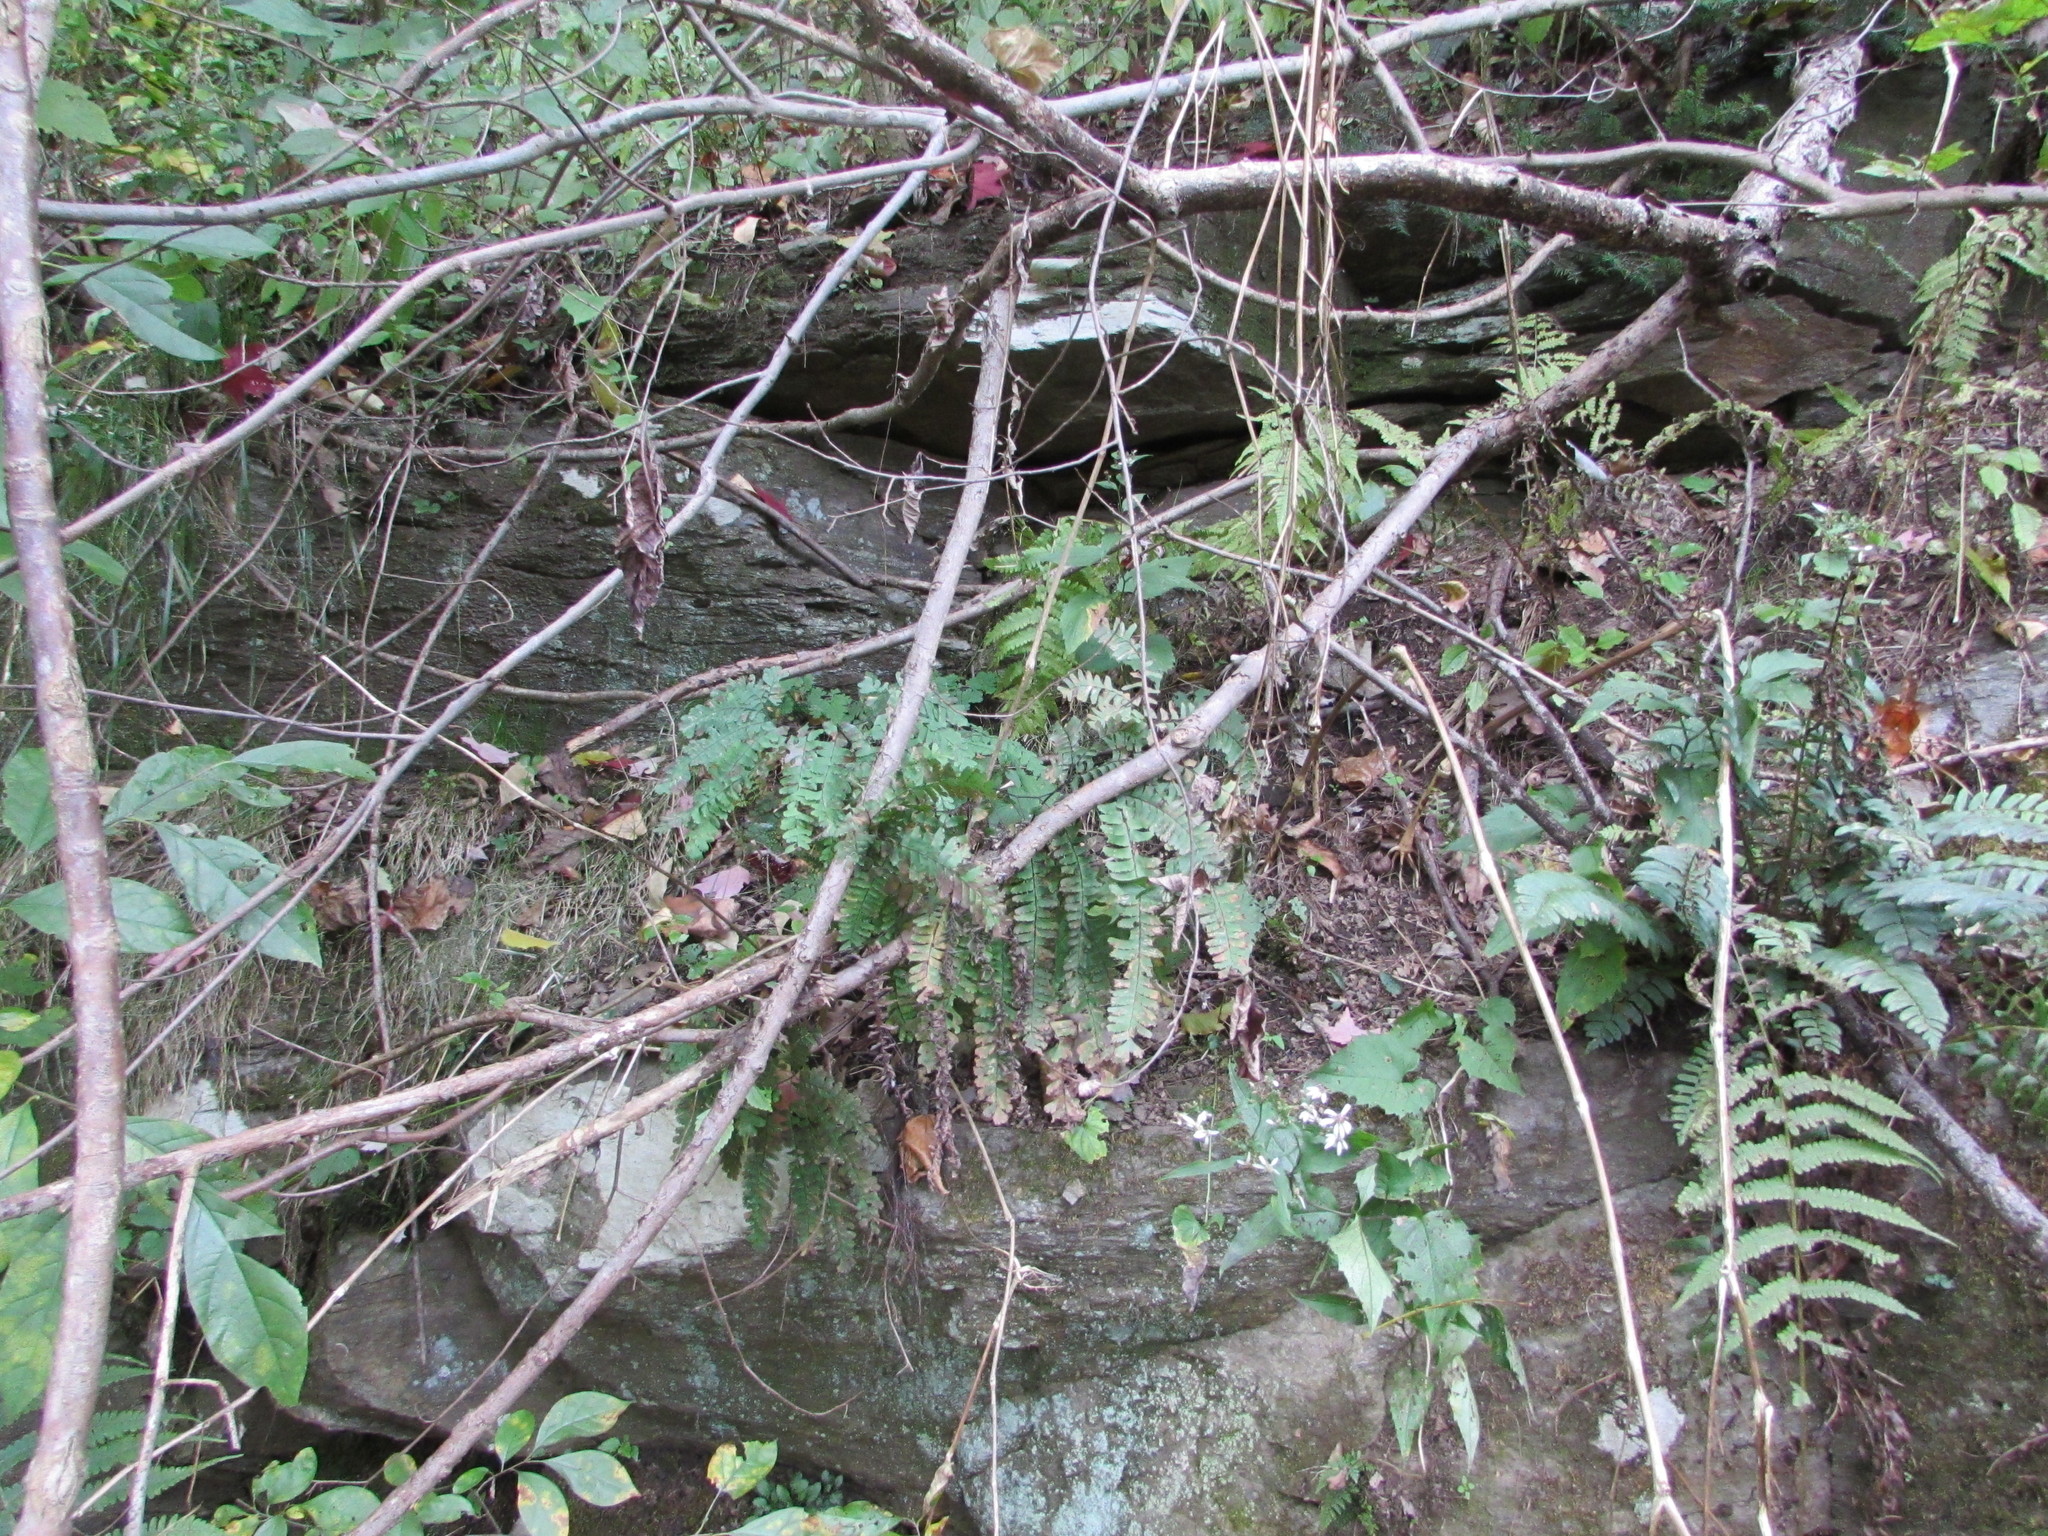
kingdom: Plantae
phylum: Tracheophyta
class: Polypodiopsida
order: Polypodiales
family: Pteridaceae
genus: Adiantum
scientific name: Adiantum pedatum
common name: Five-finger fern
